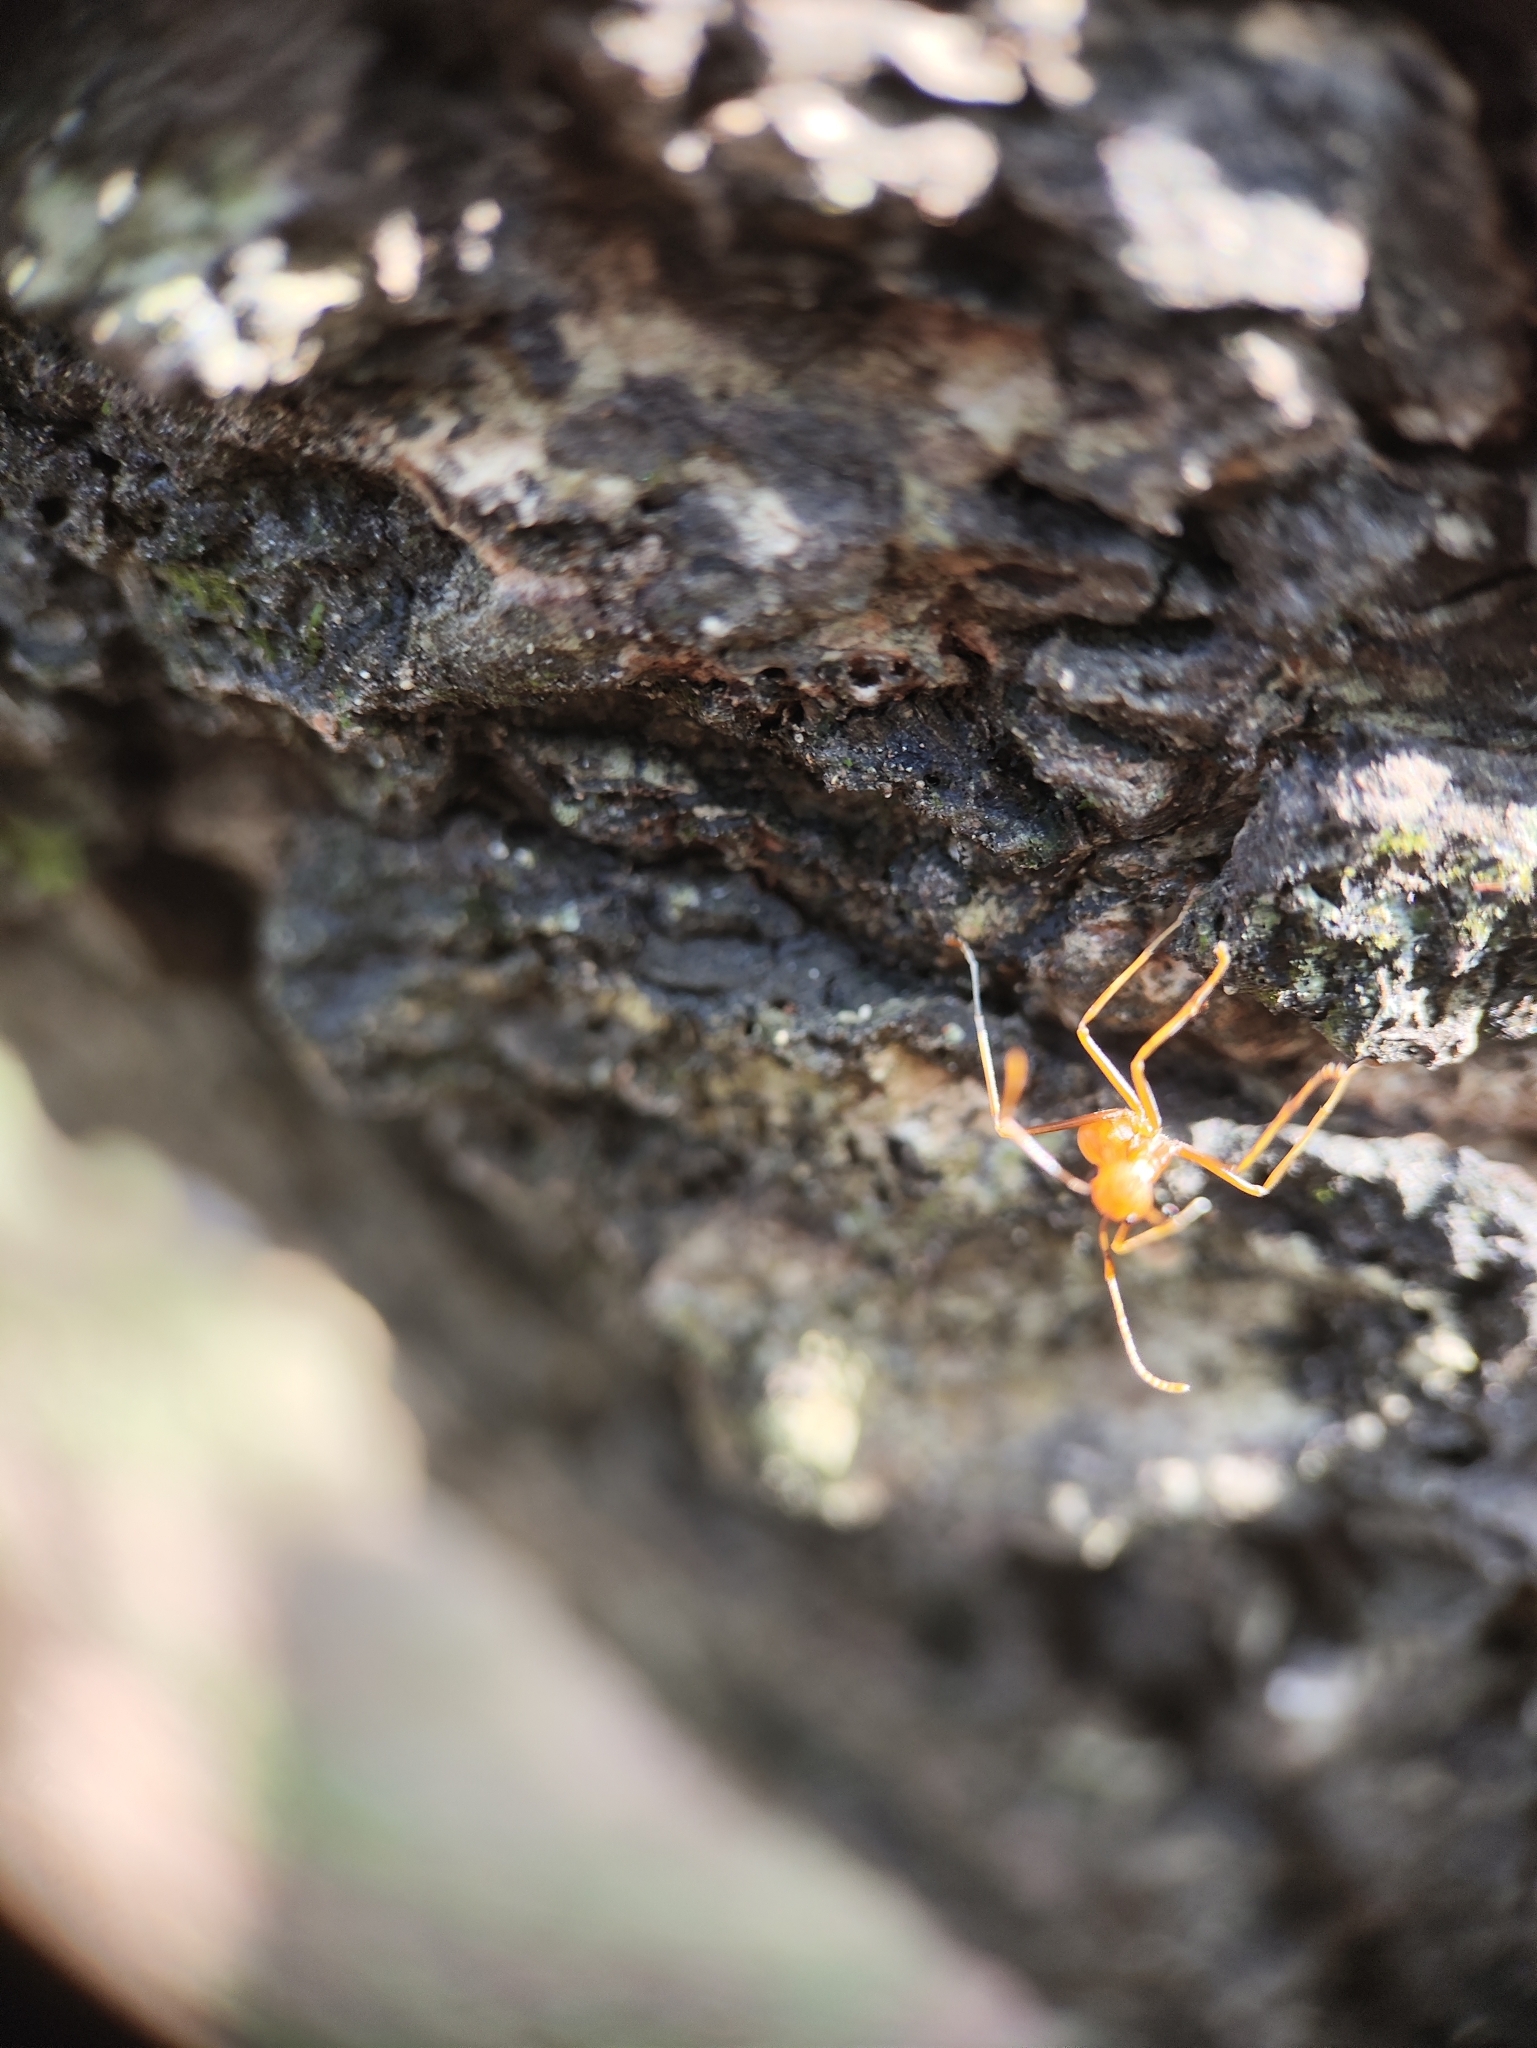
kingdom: Animalia
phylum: Arthropoda
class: Insecta
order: Hymenoptera
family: Formicidae
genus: Oecophylla
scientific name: Oecophylla smaragdina
